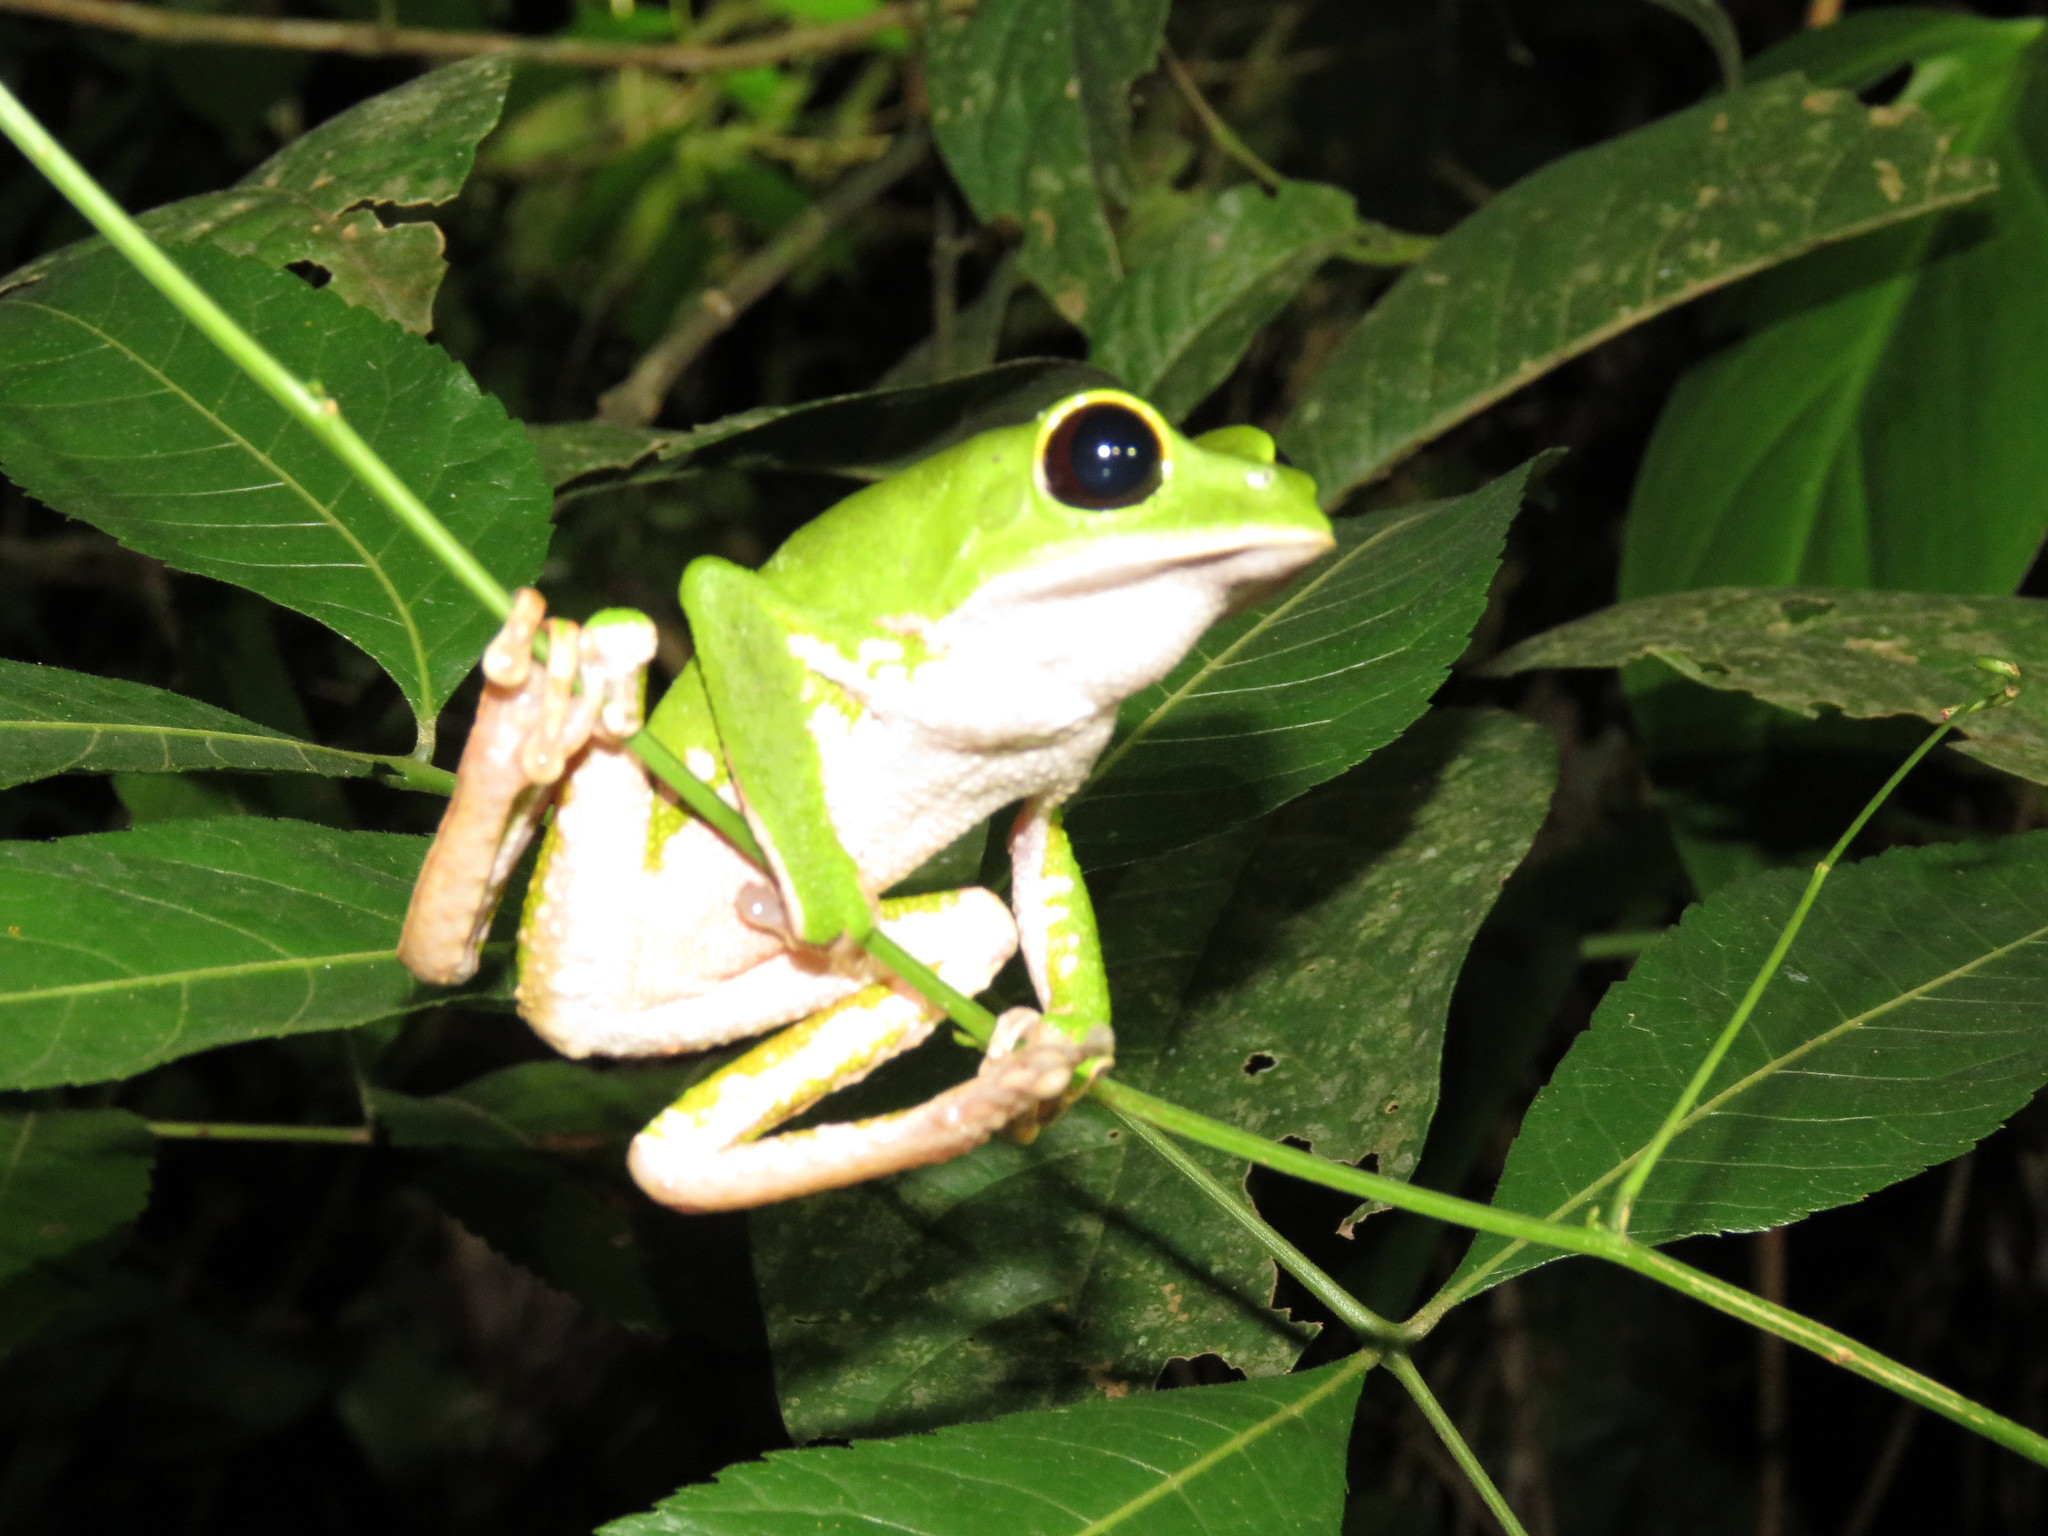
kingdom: Animalia
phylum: Chordata
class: Amphibia
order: Anura
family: Phyllomedusidae
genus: Phyllomedusa
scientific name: Phyllomedusa camba
